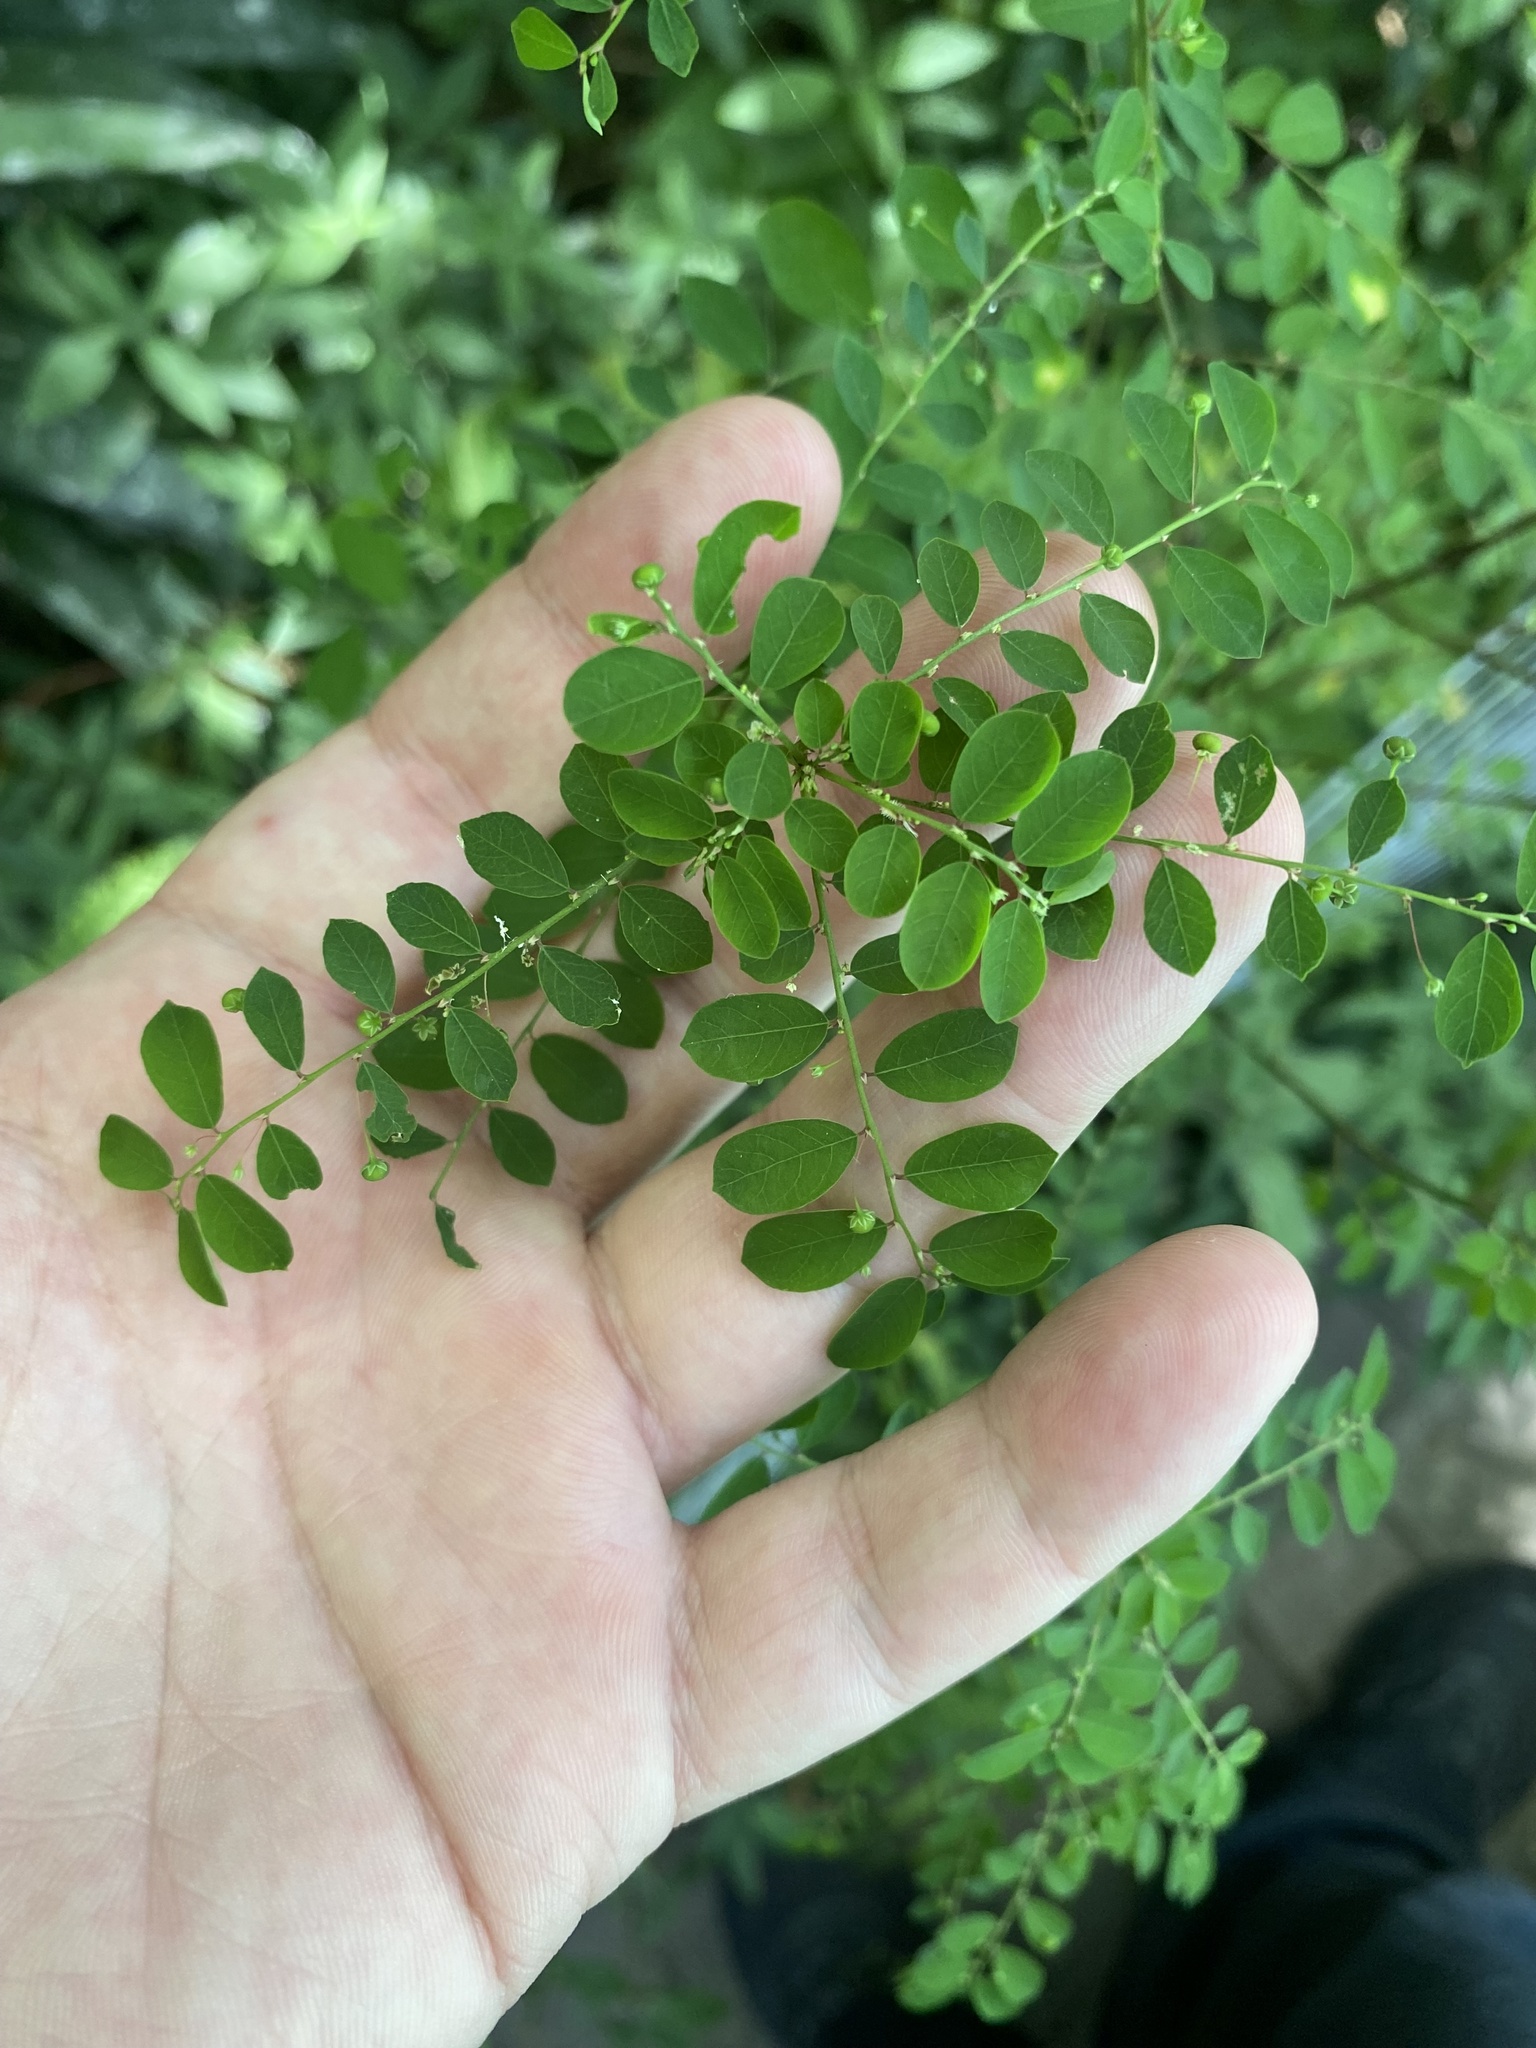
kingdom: Plantae
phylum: Tracheophyta
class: Magnoliopsida
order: Malpighiales
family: Phyllanthaceae
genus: Phyllanthus
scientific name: Phyllanthus niruri
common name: Niruri
